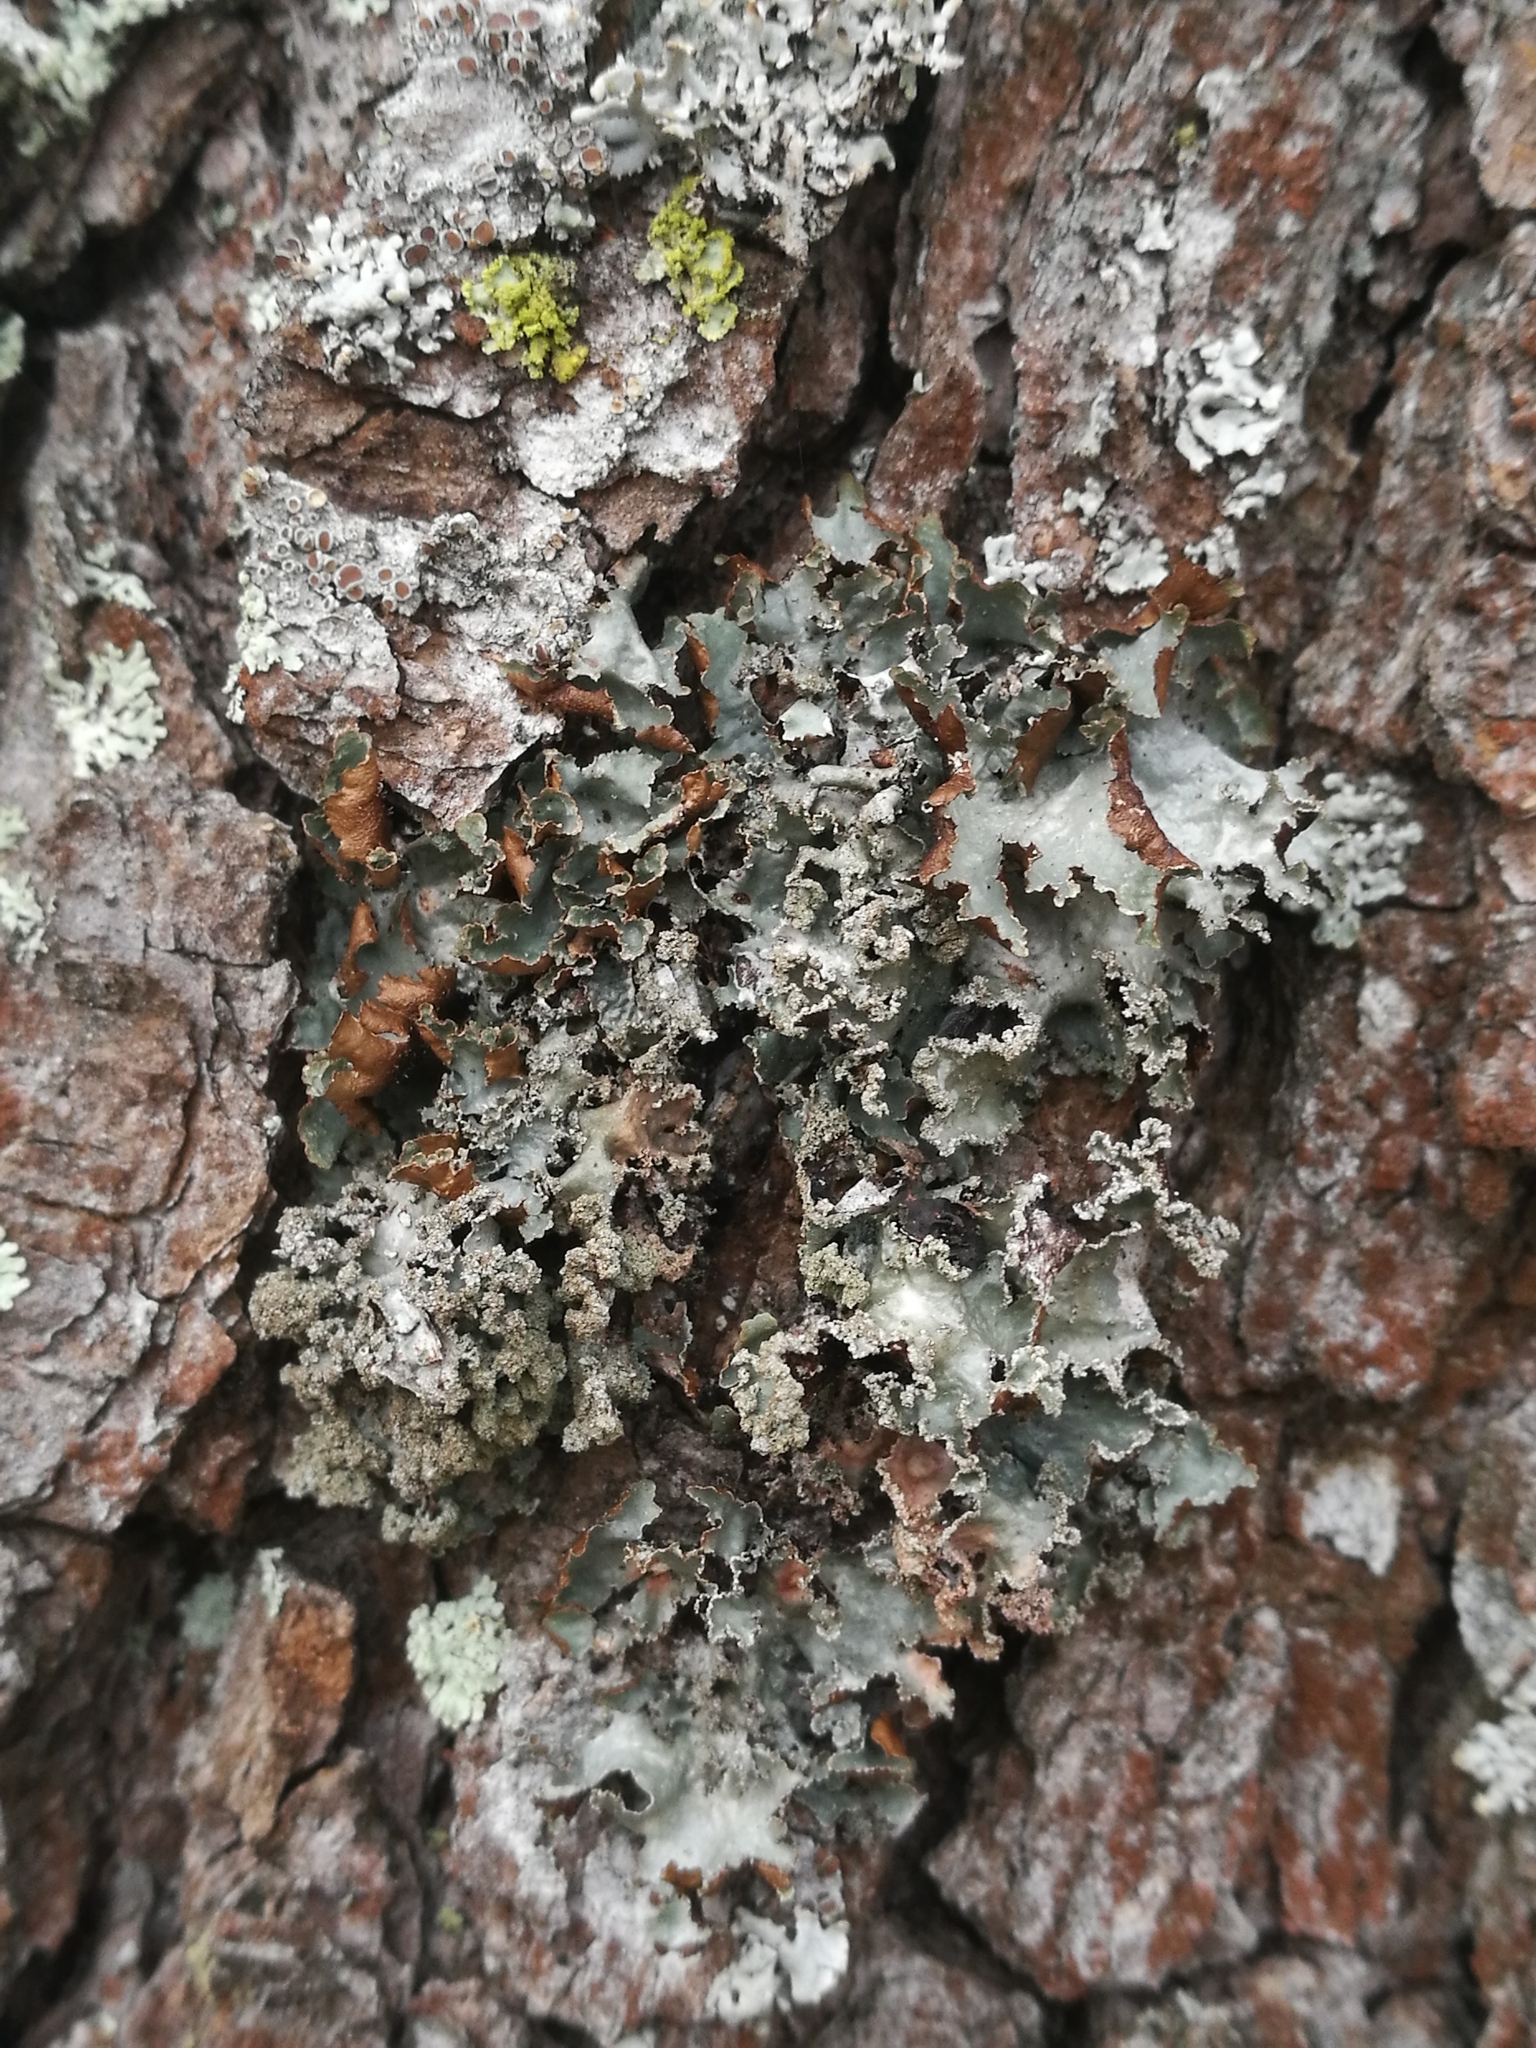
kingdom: Fungi
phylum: Ascomycota
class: Lecanoromycetes
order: Lecanorales
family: Parmeliaceae
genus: Platismatia
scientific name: Platismatia glauca
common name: Varied rag lichen
